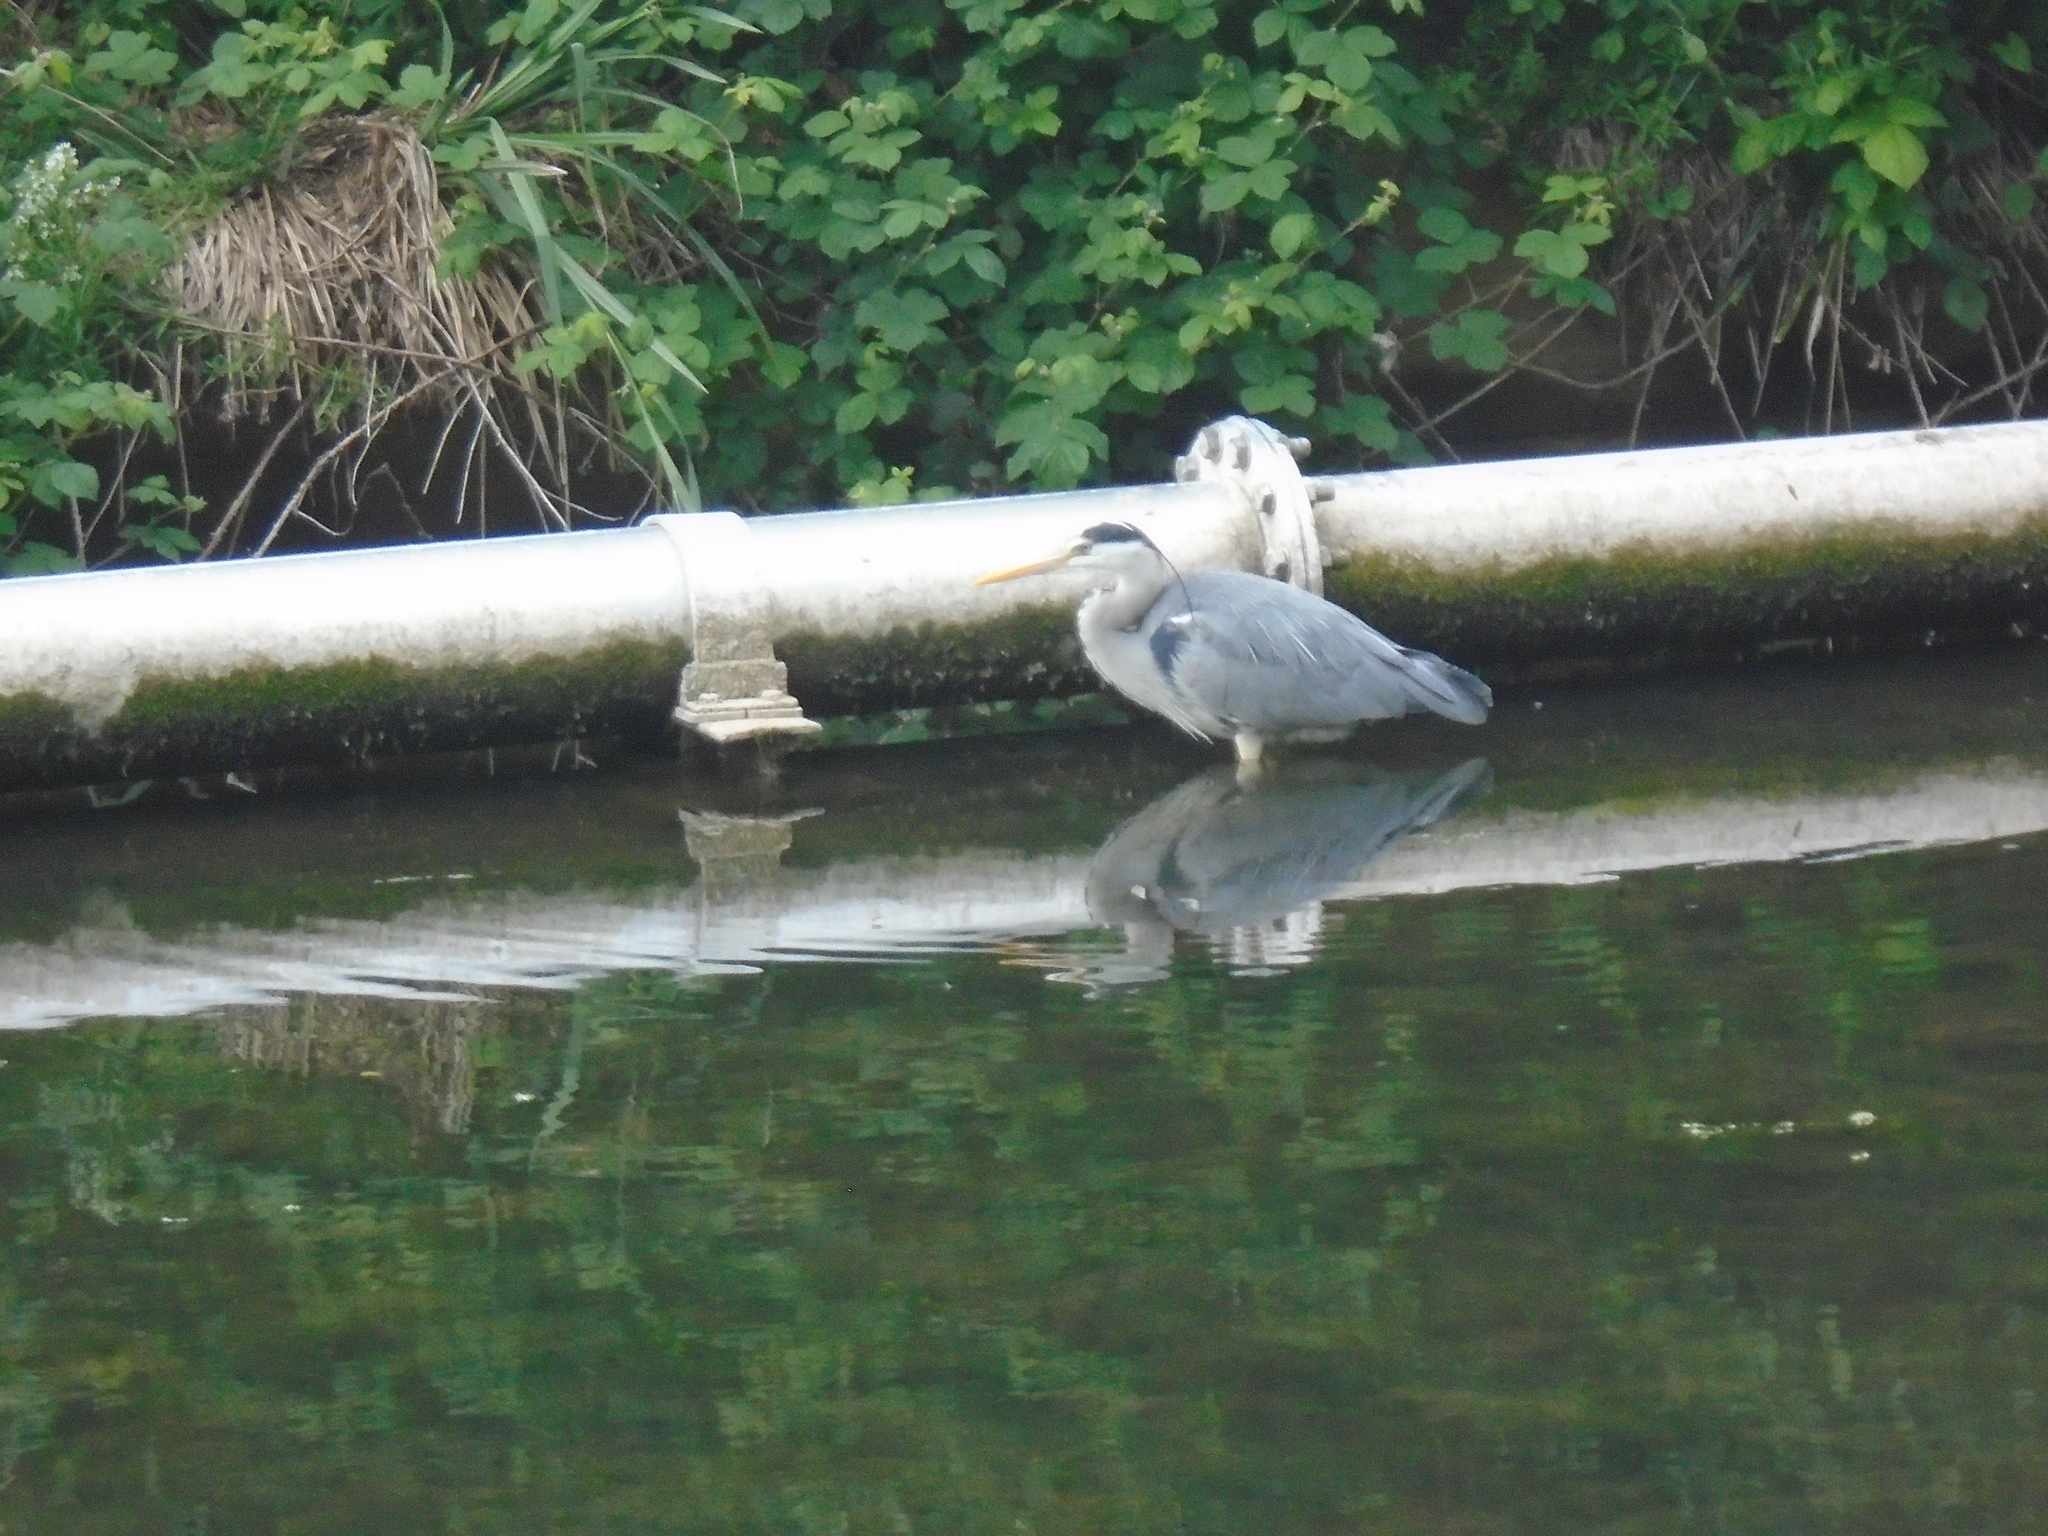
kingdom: Animalia
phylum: Chordata
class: Aves
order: Pelecaniformes
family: Ardeidae
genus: Ardea
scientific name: Ardea cinerea
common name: Grey heron
